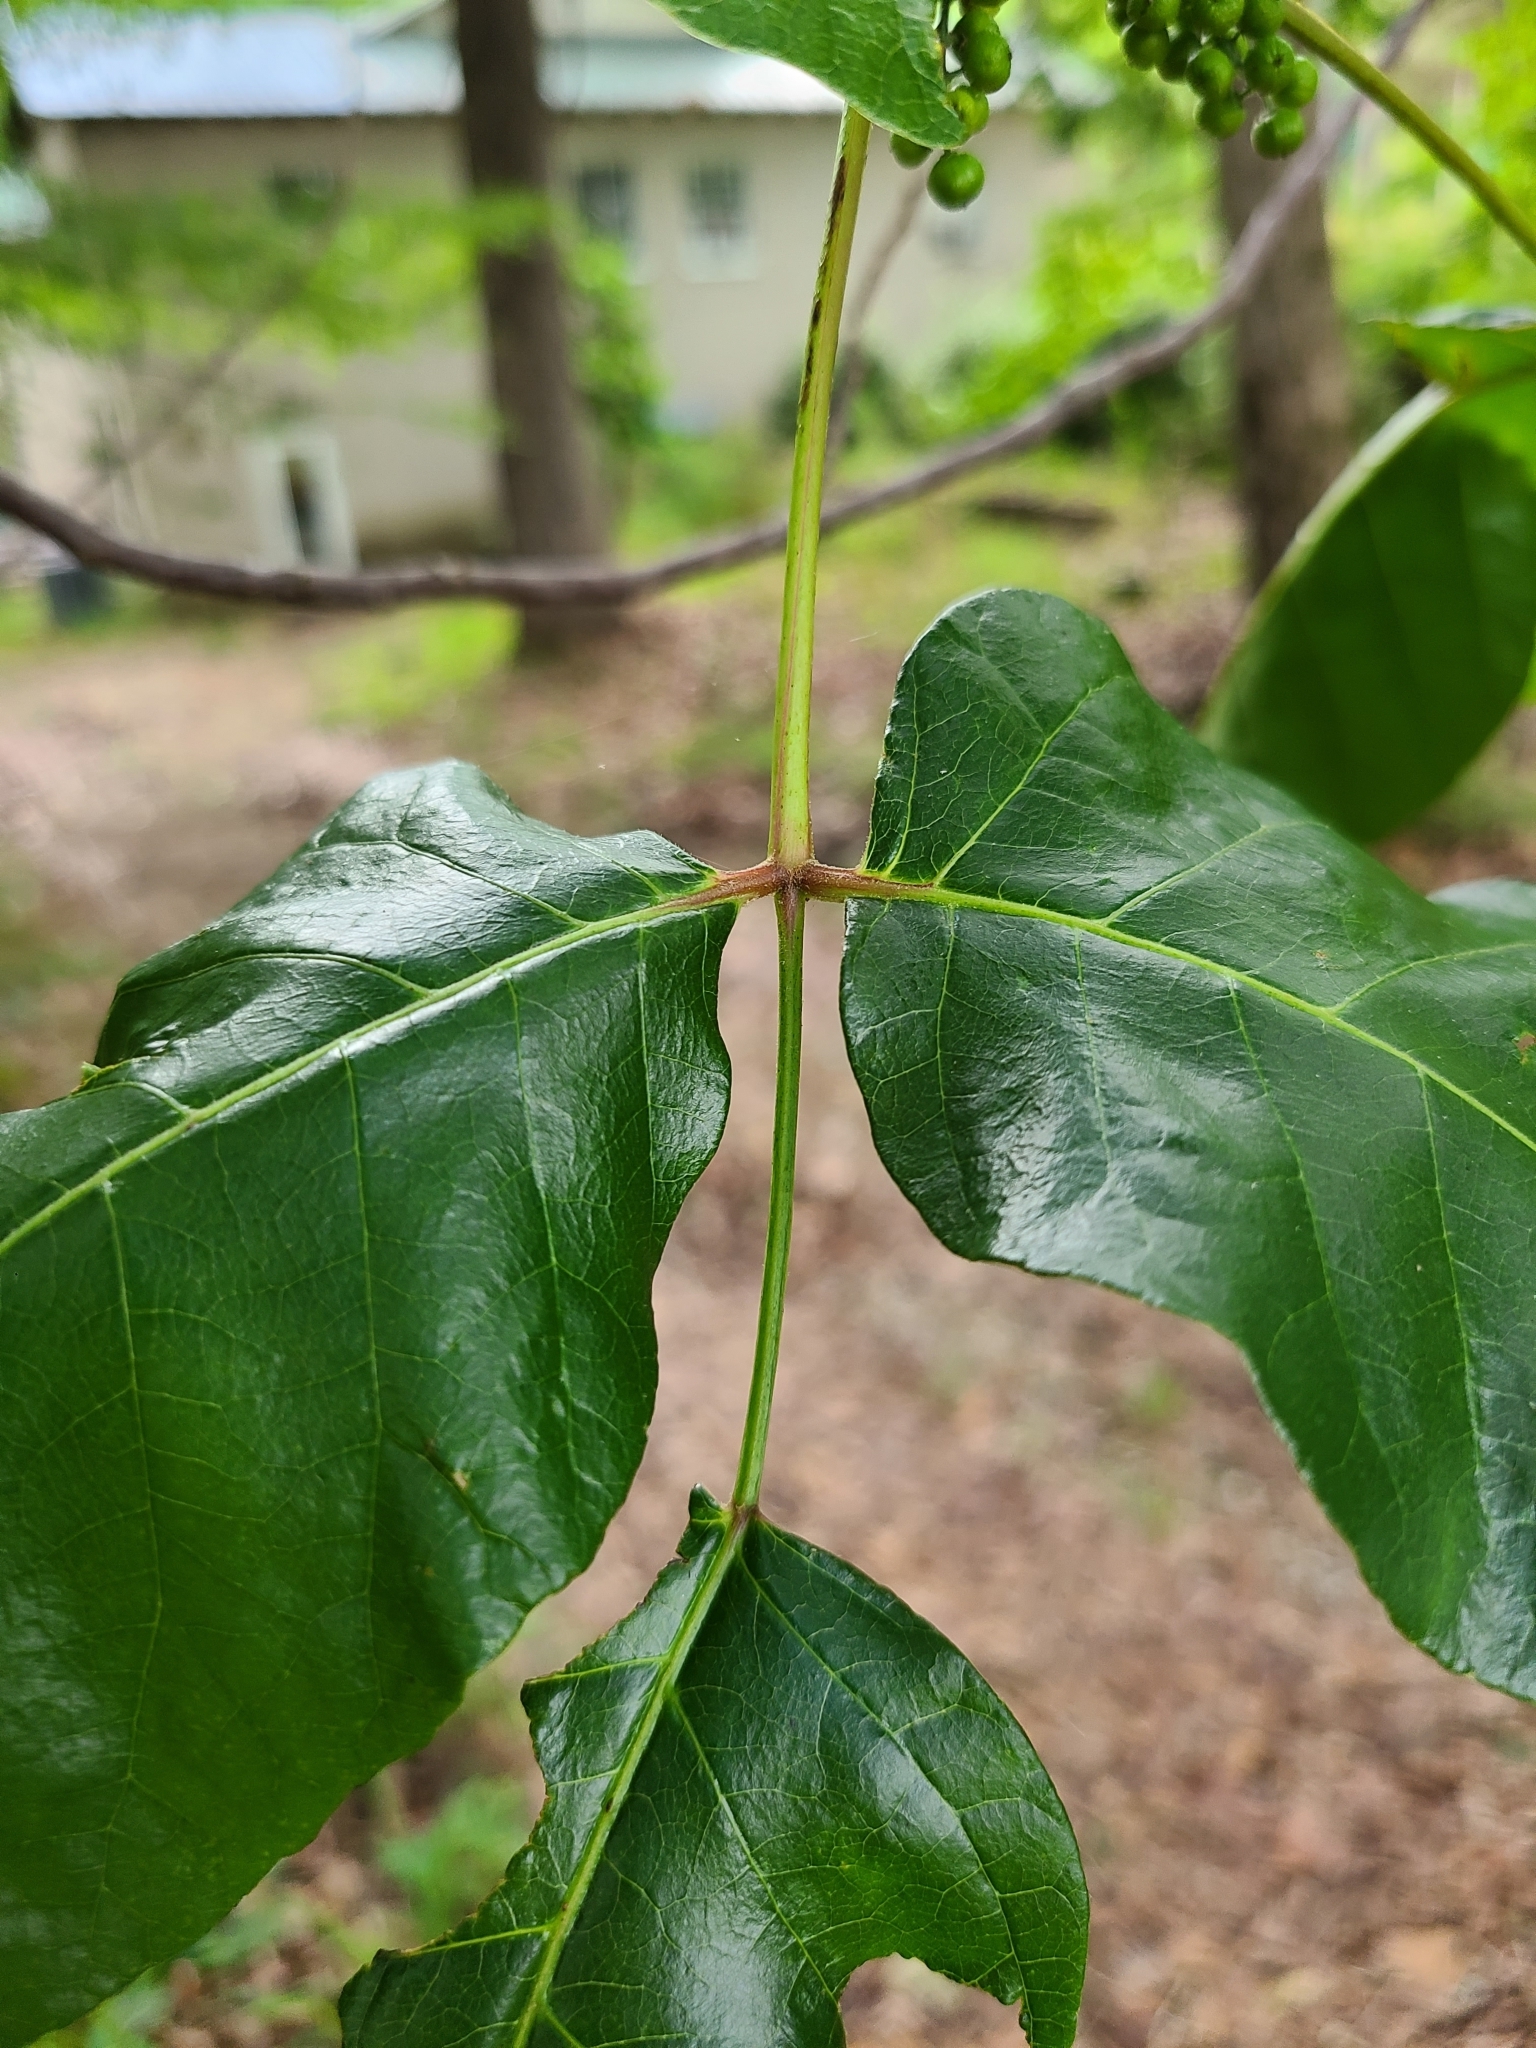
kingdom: Plantae
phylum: Tracheophyta
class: Magnoliopsida
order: Sapindales
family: Anacardiaceae
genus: Toxicodendron
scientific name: Toxicodendron radicans
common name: Poison ivy
